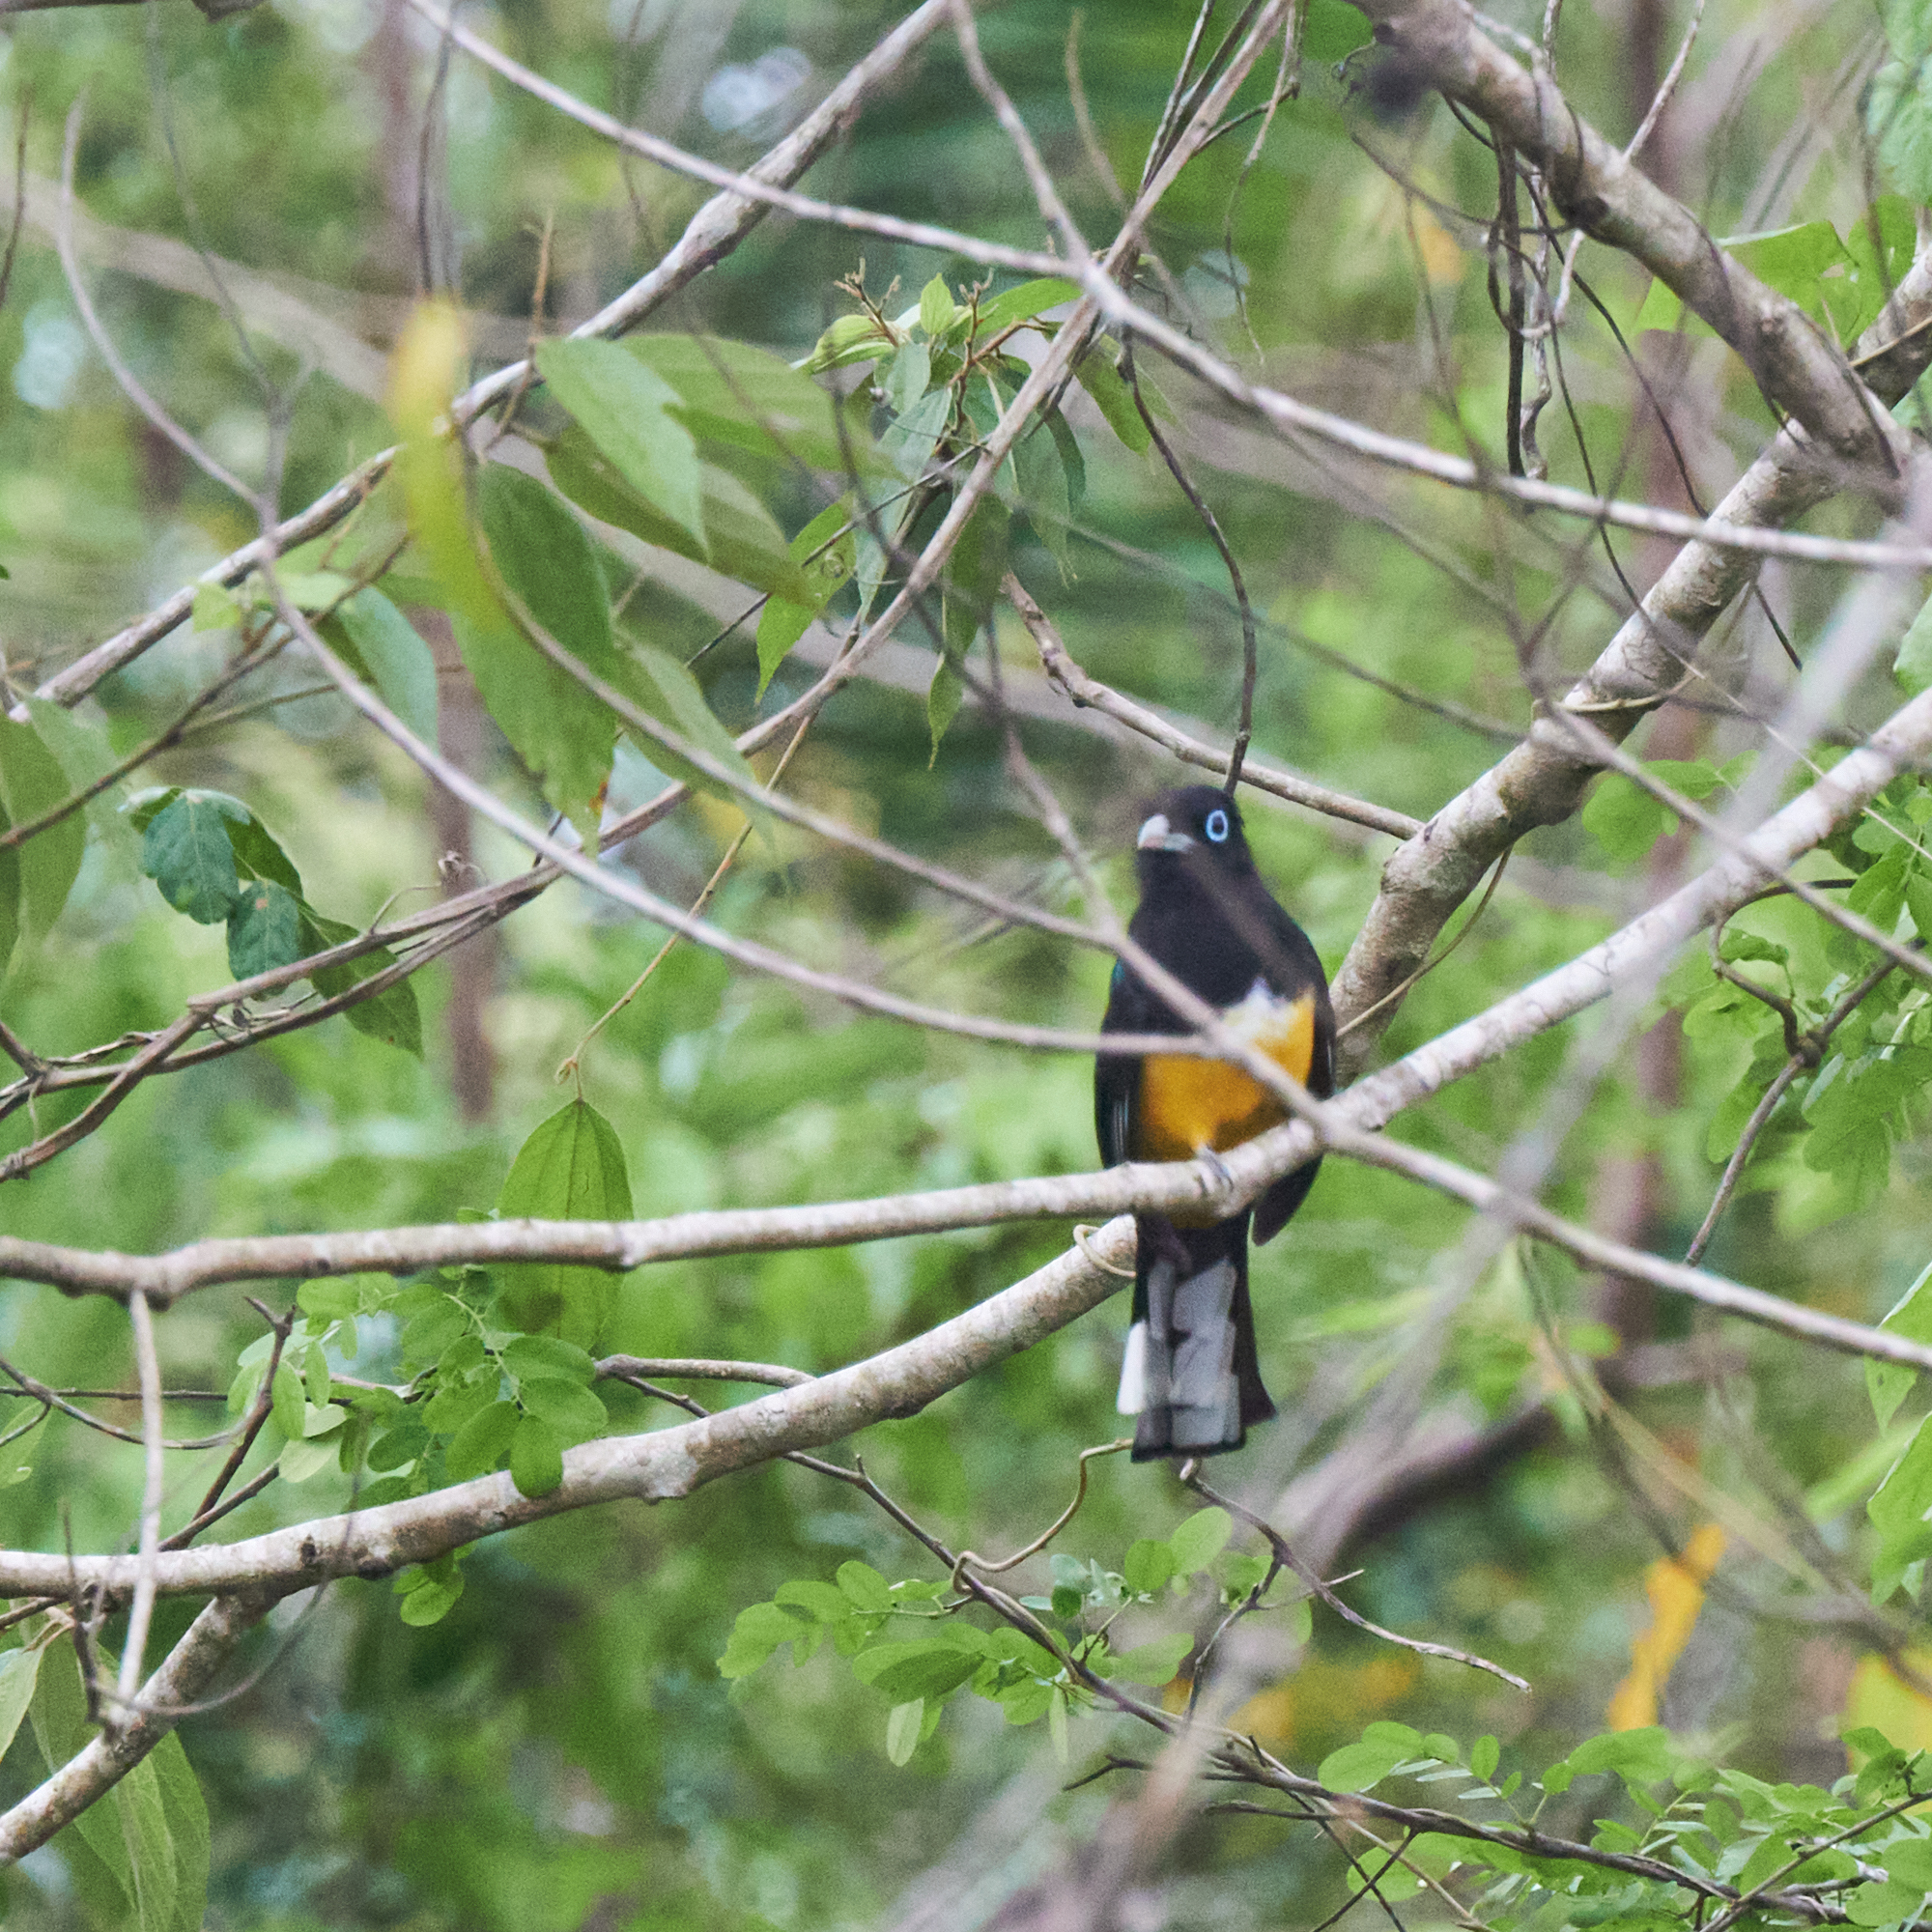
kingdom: Animalia
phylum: Chordata
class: Aves
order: Trogoniformes
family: Trogonidae
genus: Trogon
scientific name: Trogon melanocephalus
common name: Black-headed trogon
